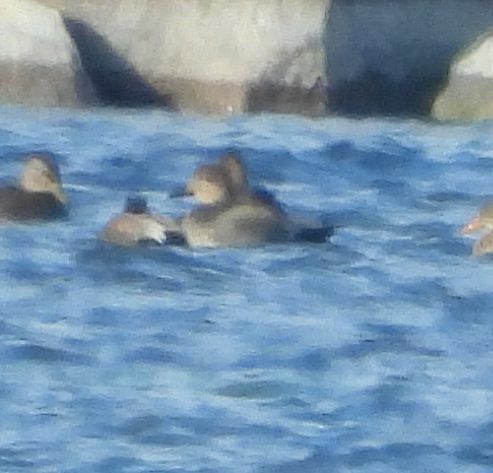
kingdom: Animalia
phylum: Chordata
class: Aves
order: Anseriformes
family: Anatidae
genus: Mareca
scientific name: Mareca strepera
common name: Gadwall
